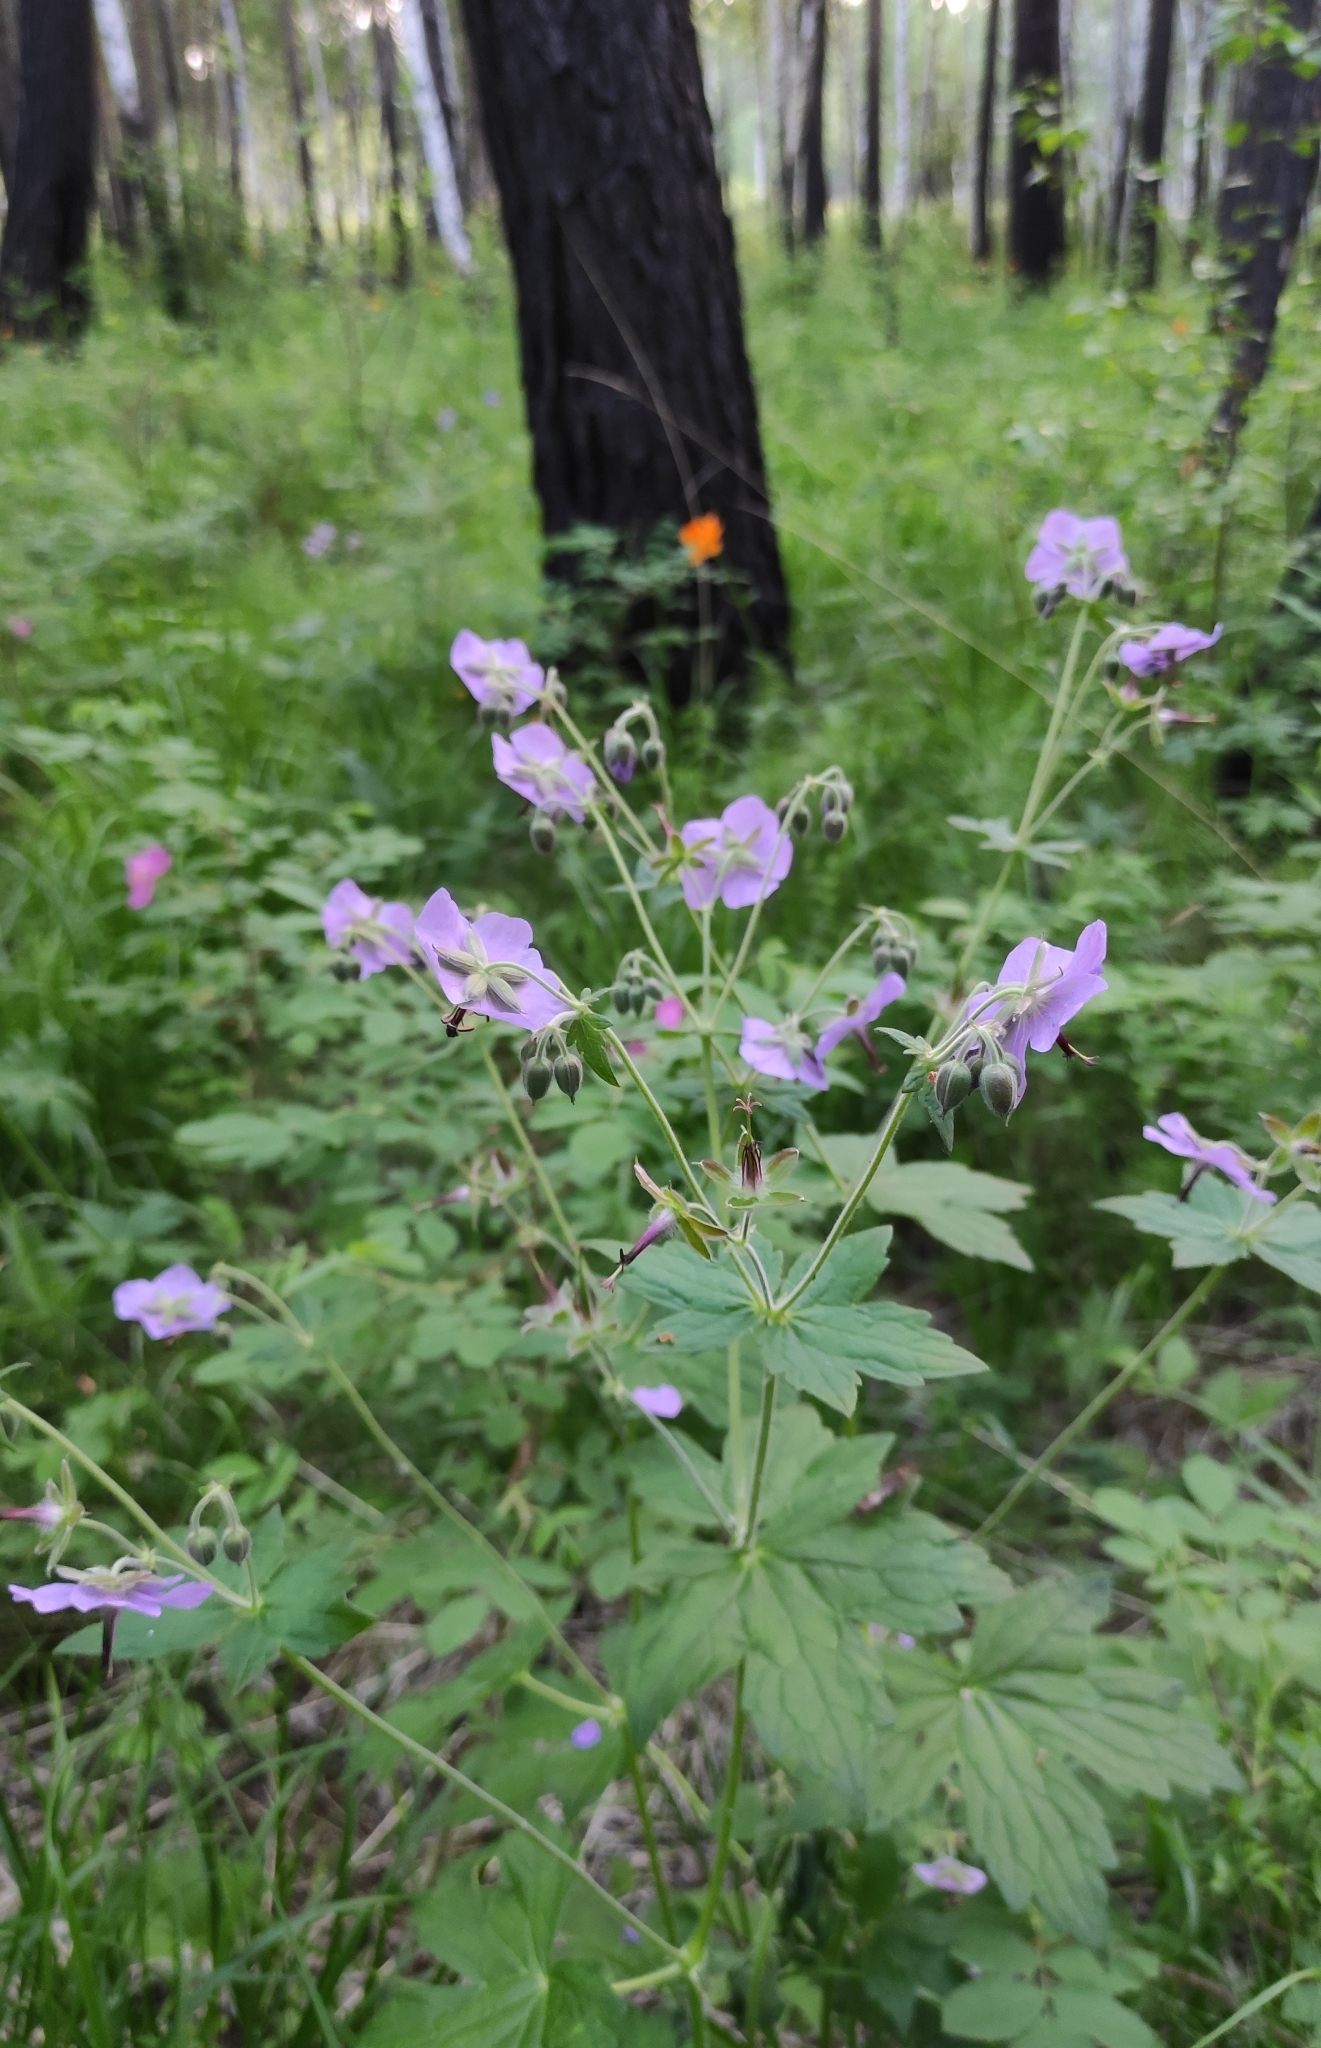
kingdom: Plantae
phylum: Tracheophyta
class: Magnoliopsida
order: Geraniales
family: Geraniaceae
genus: Geranium
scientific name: Geranium platyanthum
